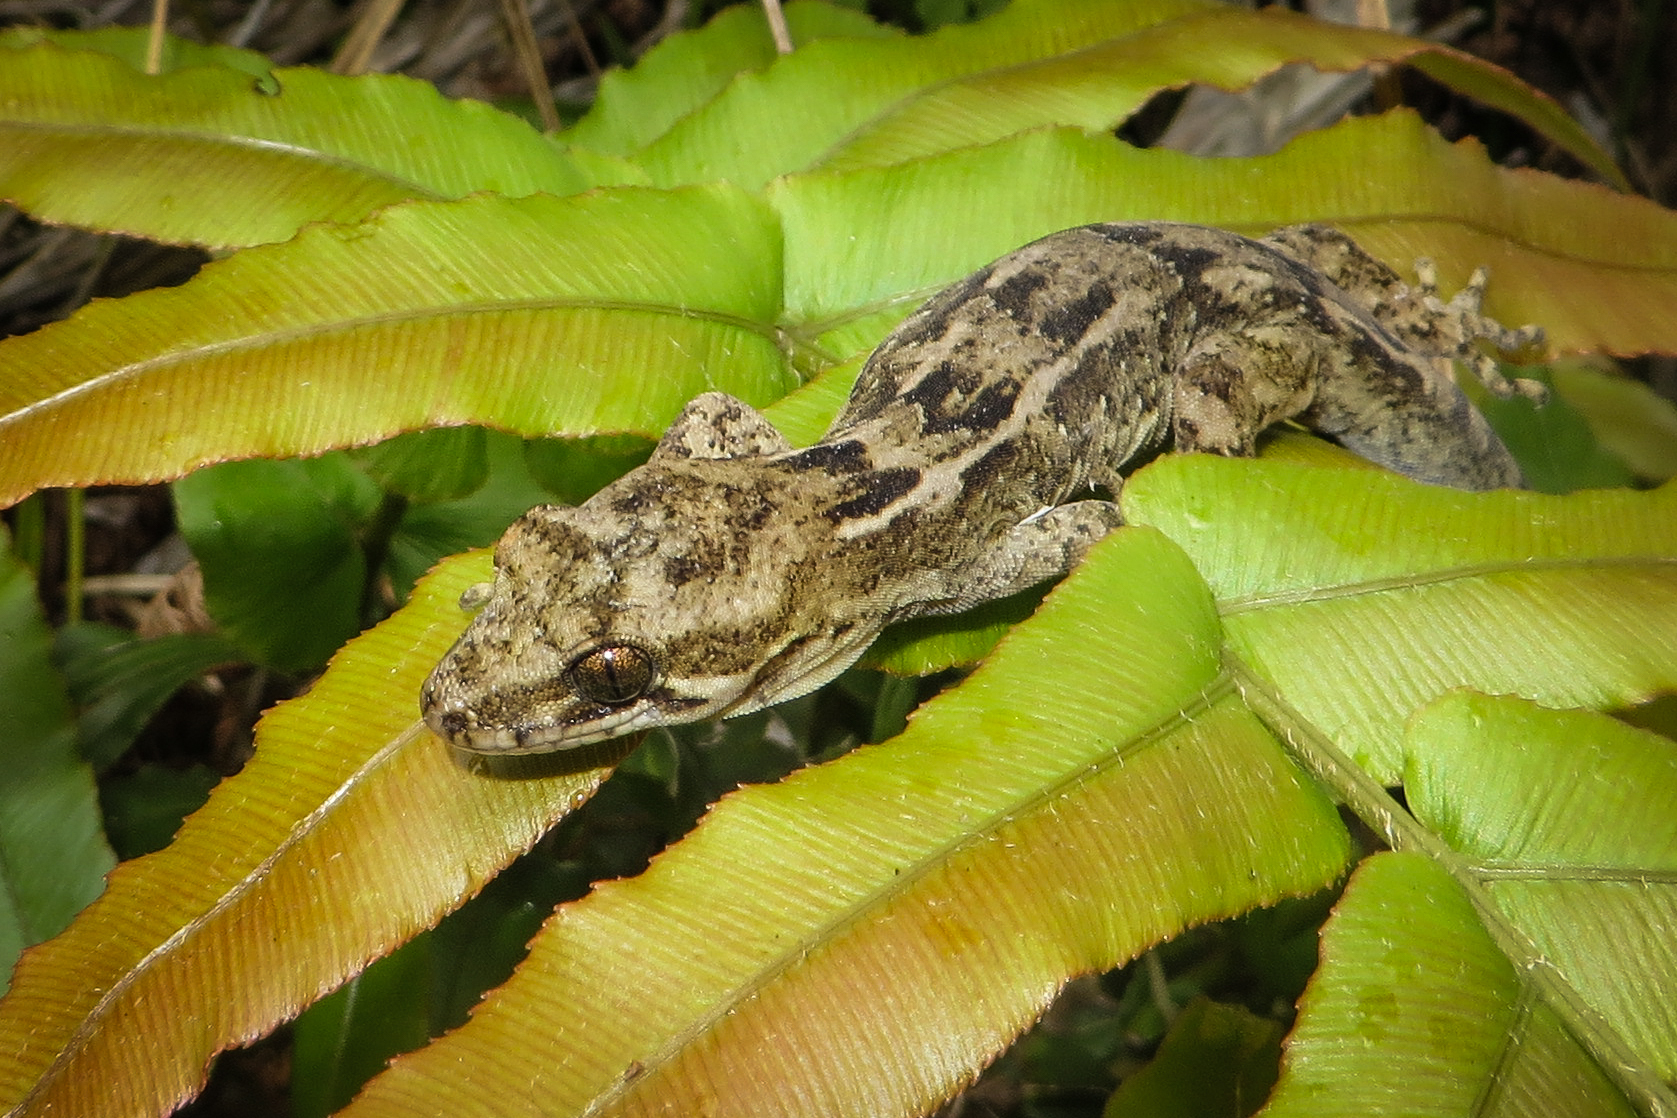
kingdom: Animalia
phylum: Chordata
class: Squamata
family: Diplodactylidae
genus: Dactylocnemis
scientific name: Dactylocnemis pacificus
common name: Pacific gecko
